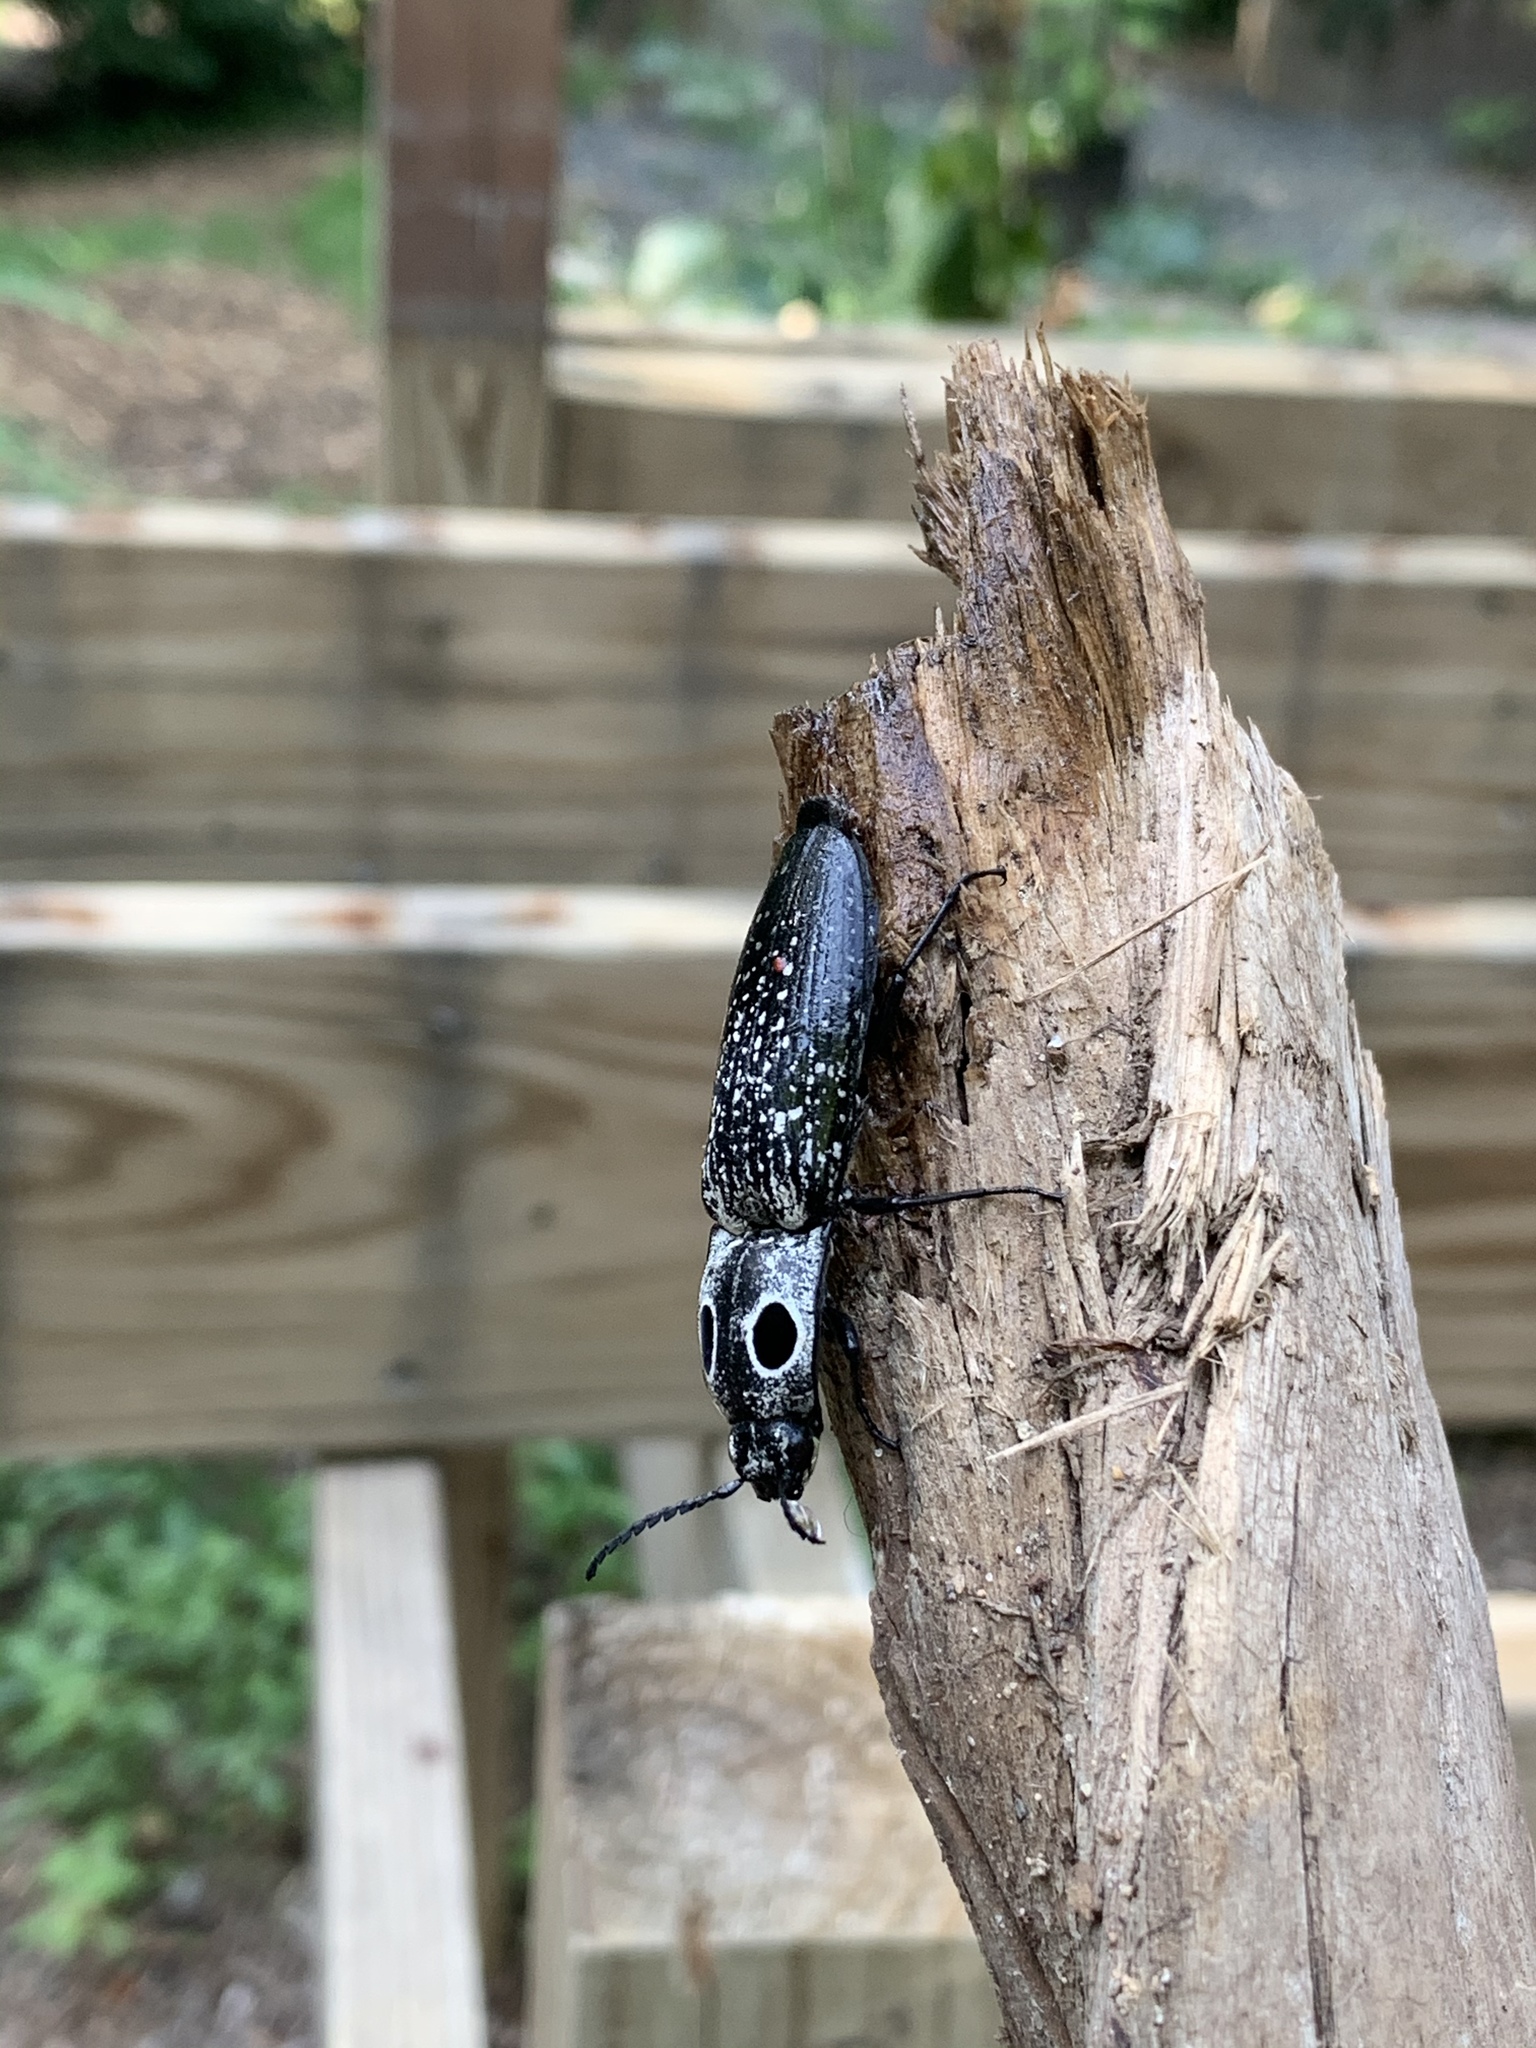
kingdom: Animalia
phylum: Arthropoda
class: Insecta
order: Coleoptera
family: Elateridae
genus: Alaus
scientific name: Alaus oculatus
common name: Eastern eyed click beetle
